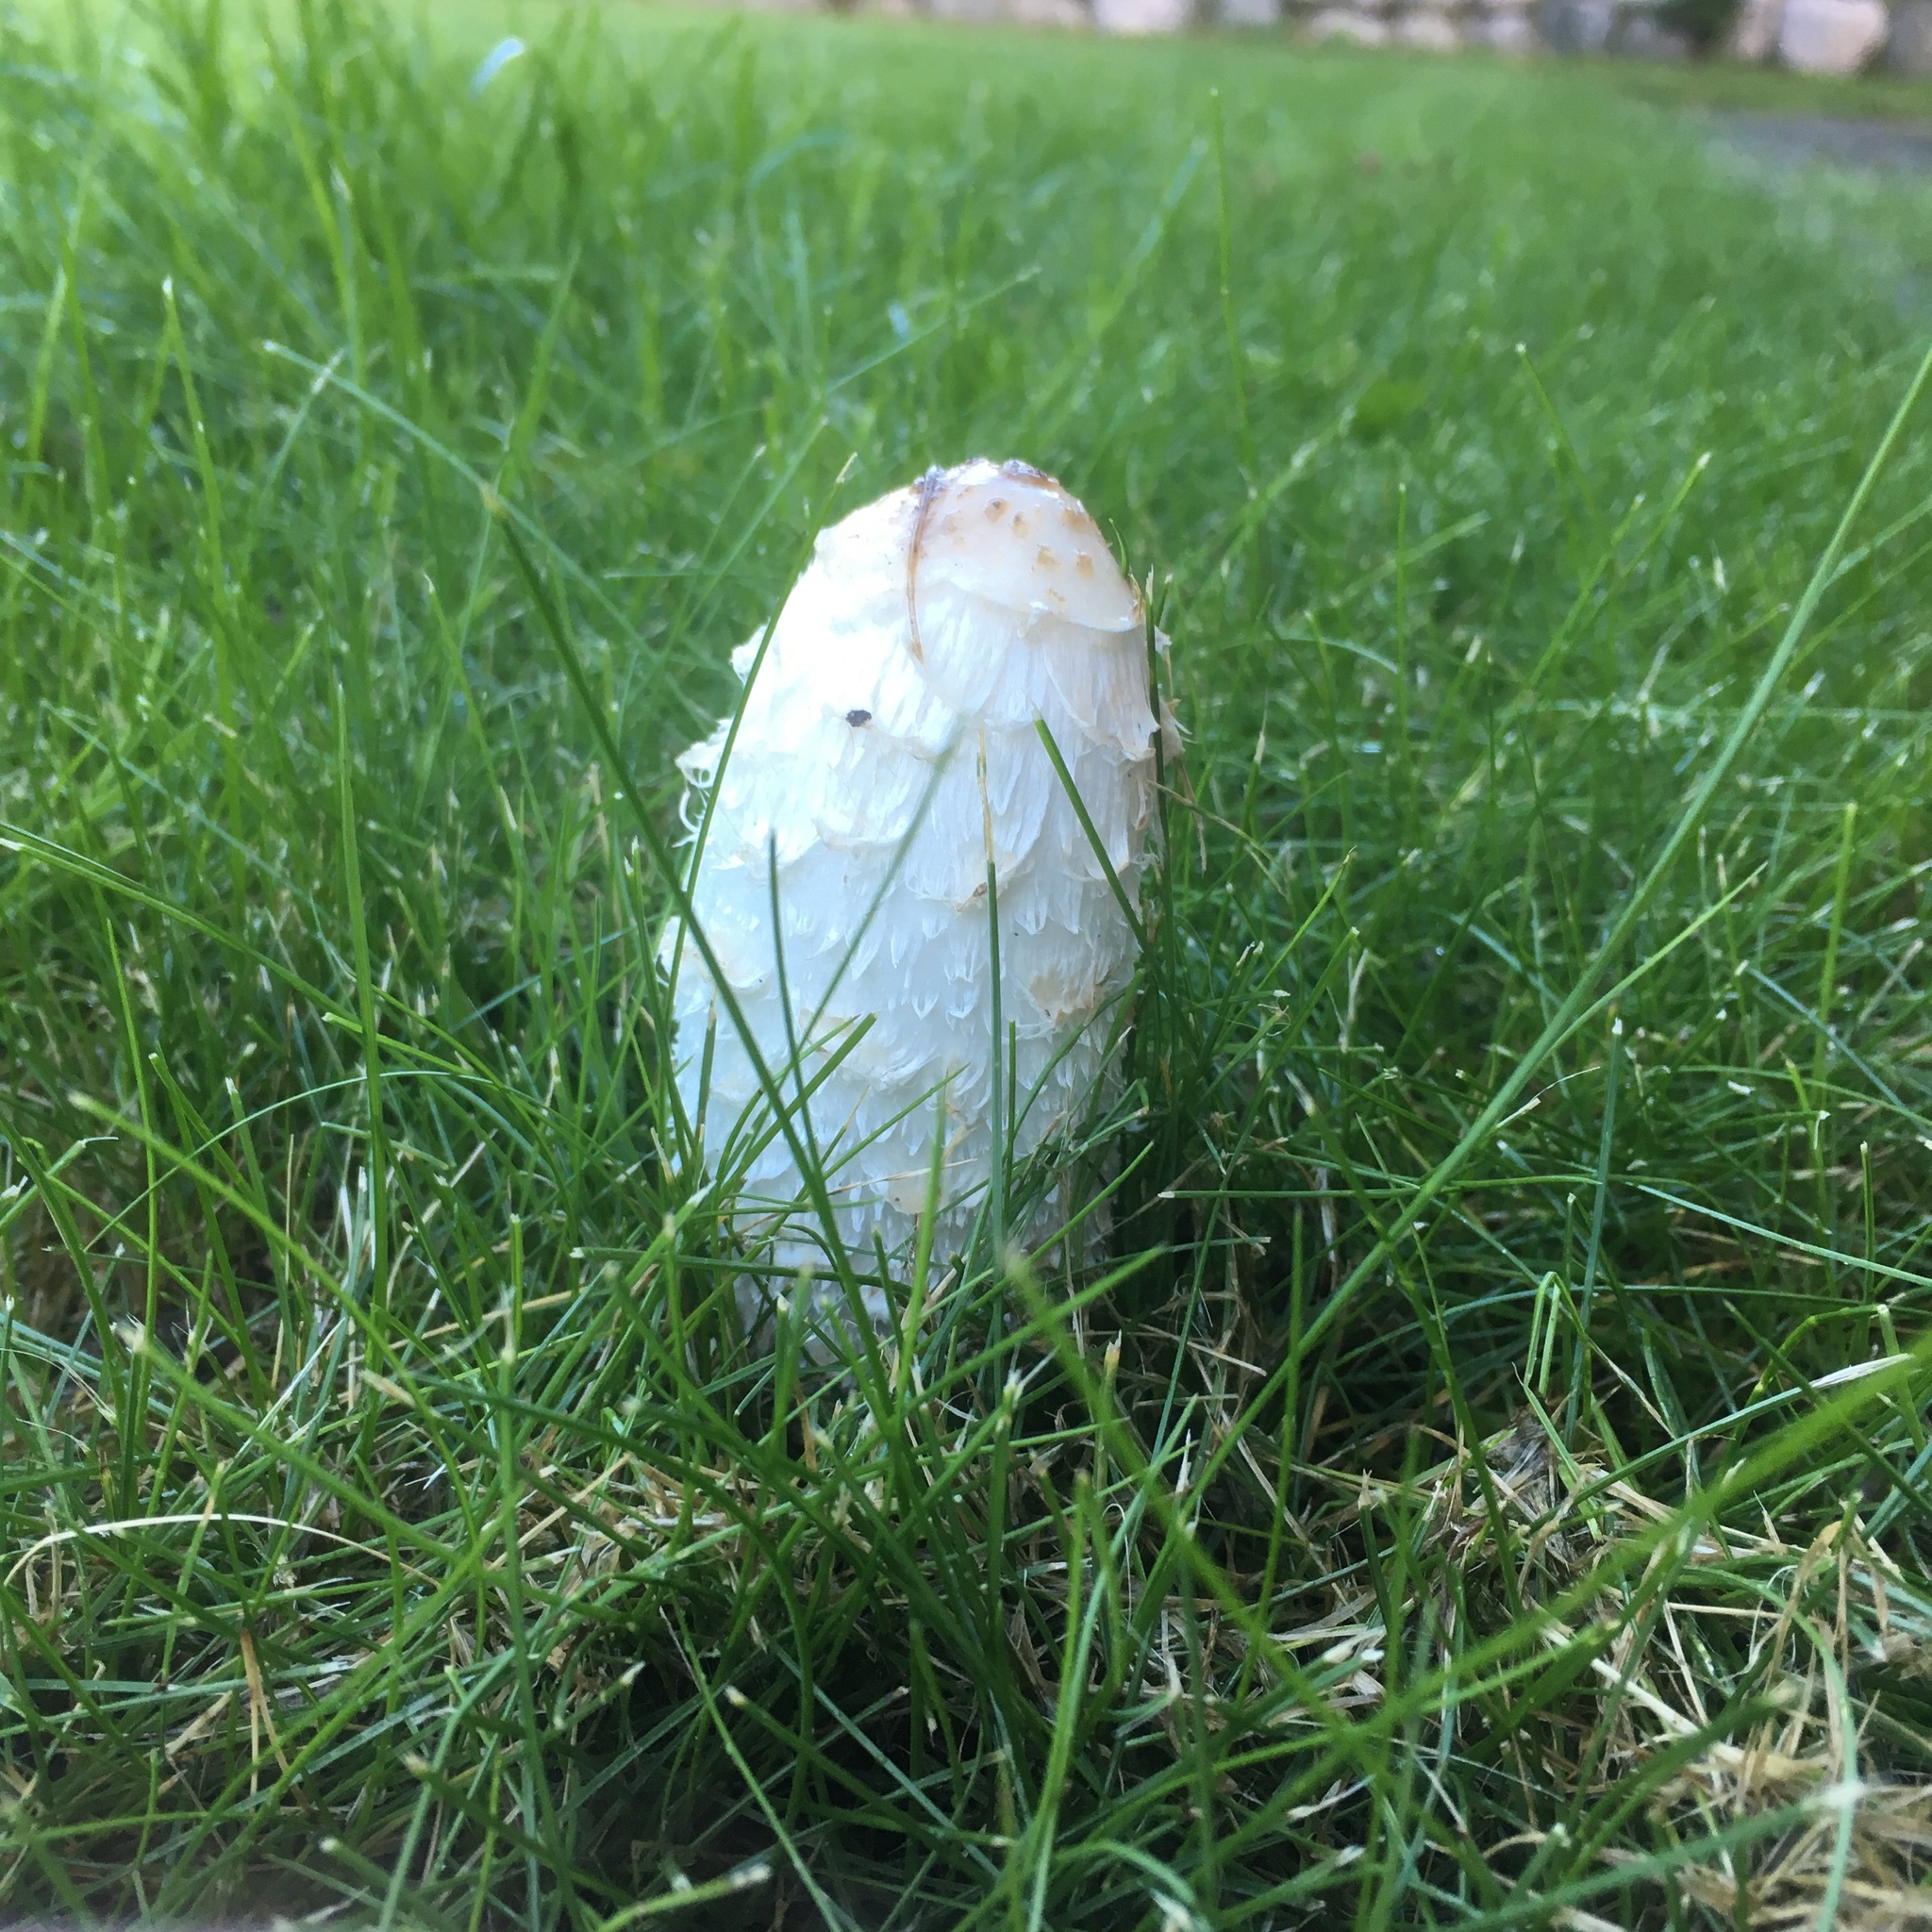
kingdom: Fungi
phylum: Basidiomycota
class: Agaricomycetes
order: Agaricales
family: Agaricaceae
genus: Coprinus
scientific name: Coprinus comatus
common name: Lawyer's wig
